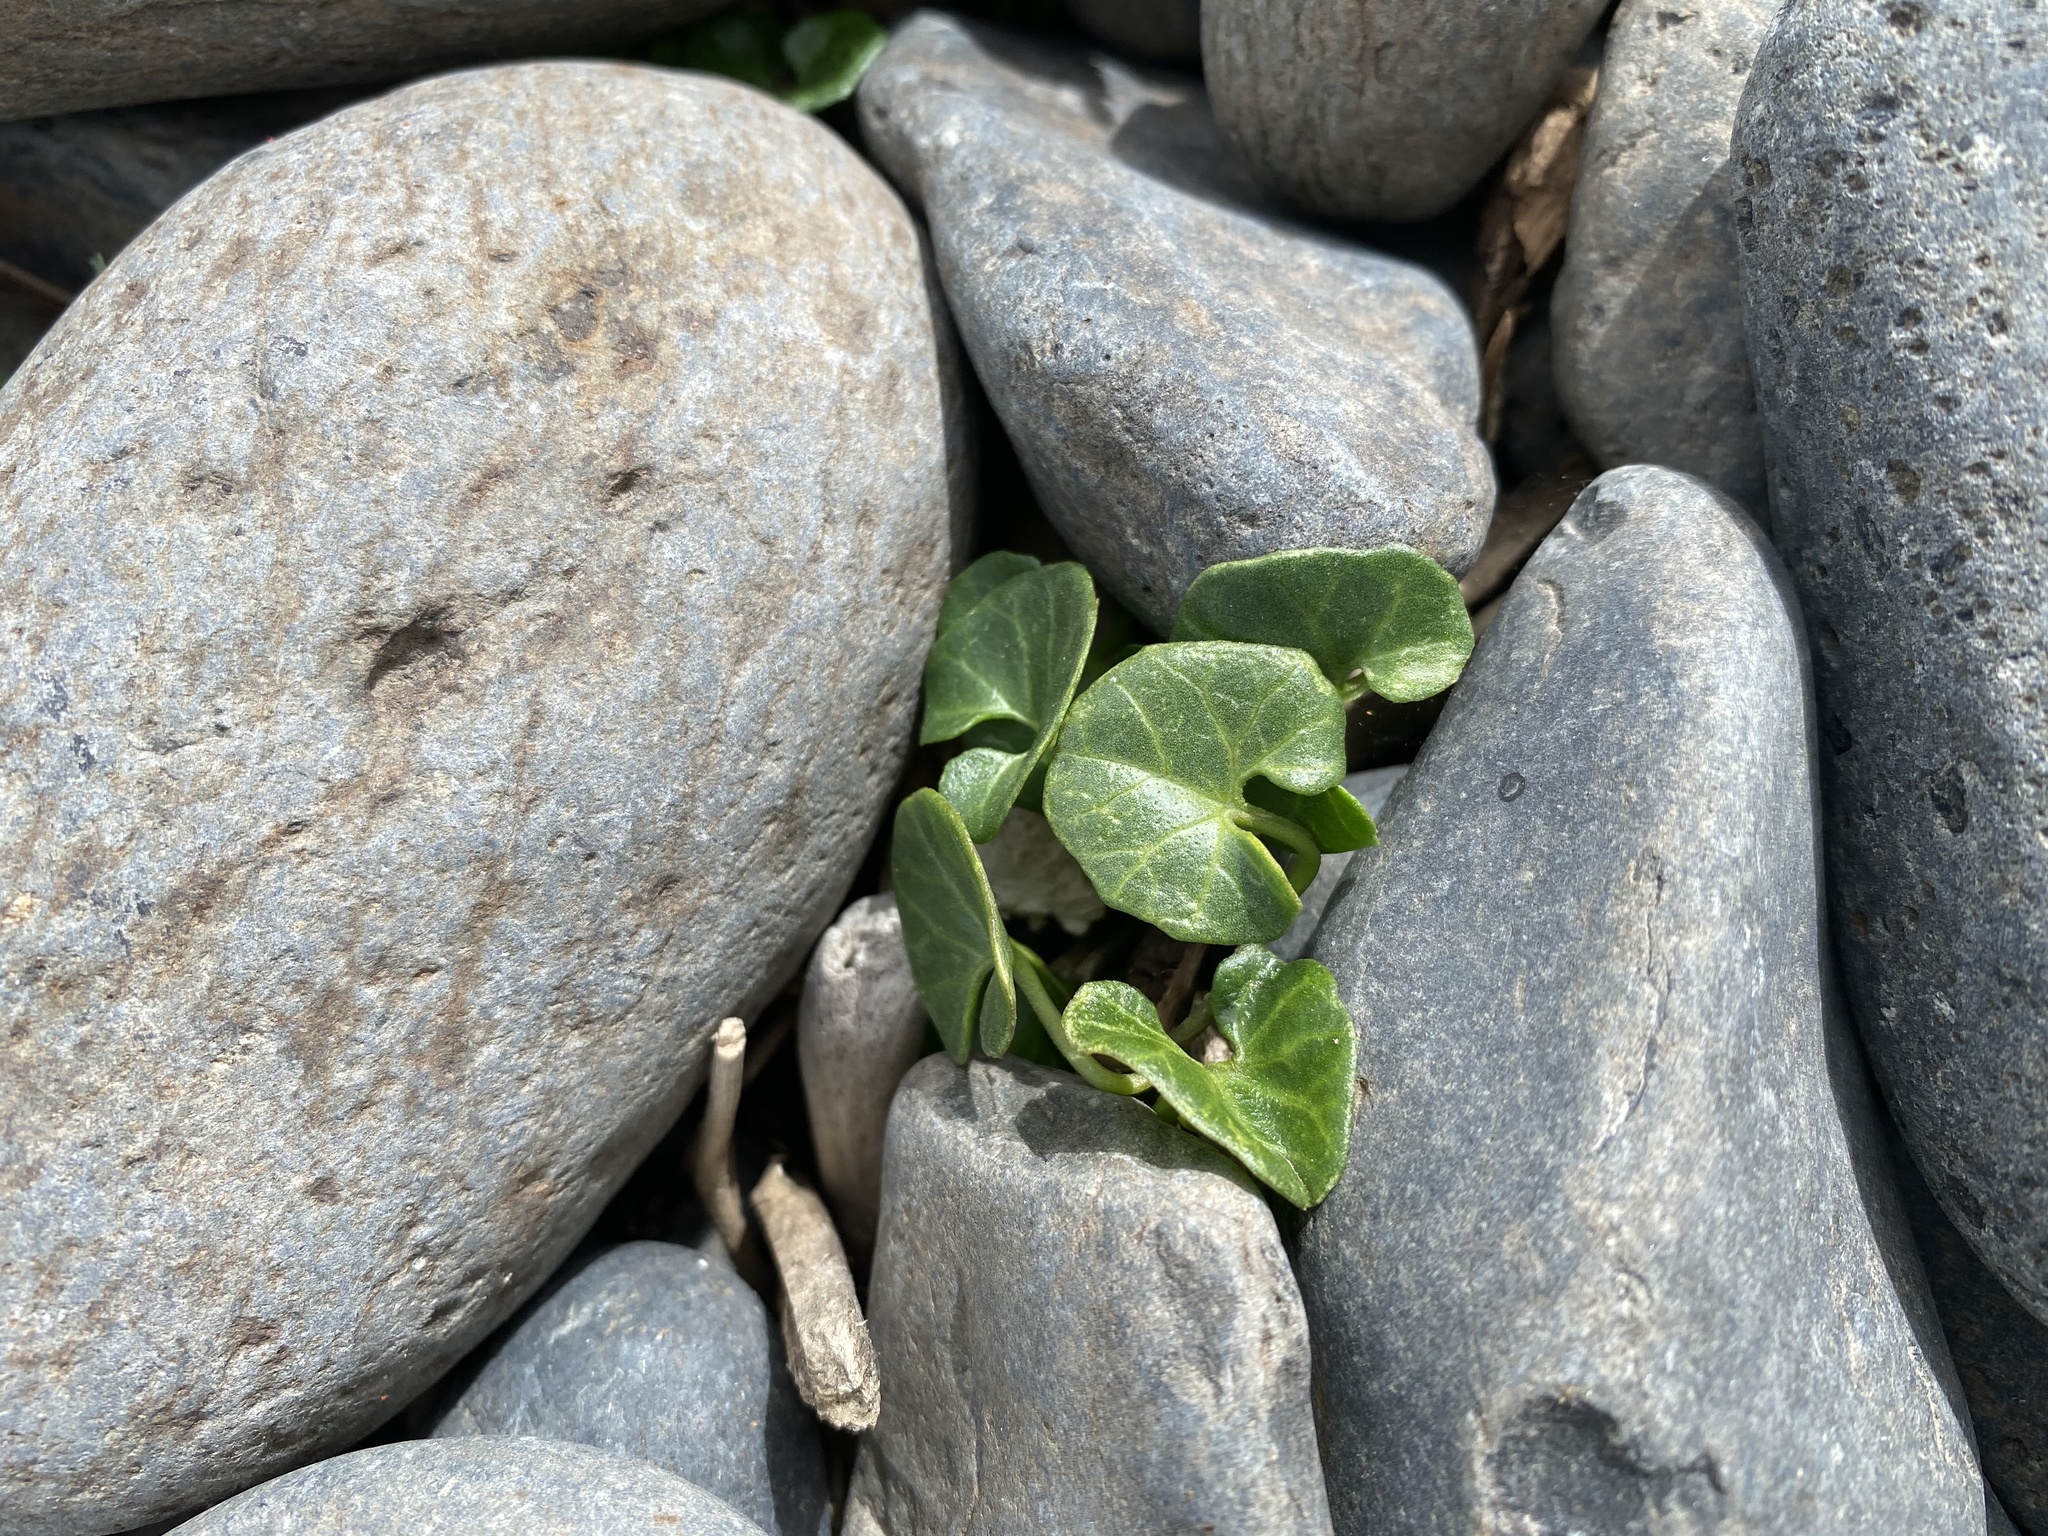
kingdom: Plantae
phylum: Tracheophyta
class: Magnoliopsida
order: Solanales
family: Convolvulaceae
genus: Calystegia
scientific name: Calystegia soldanella
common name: Sea bindweed
